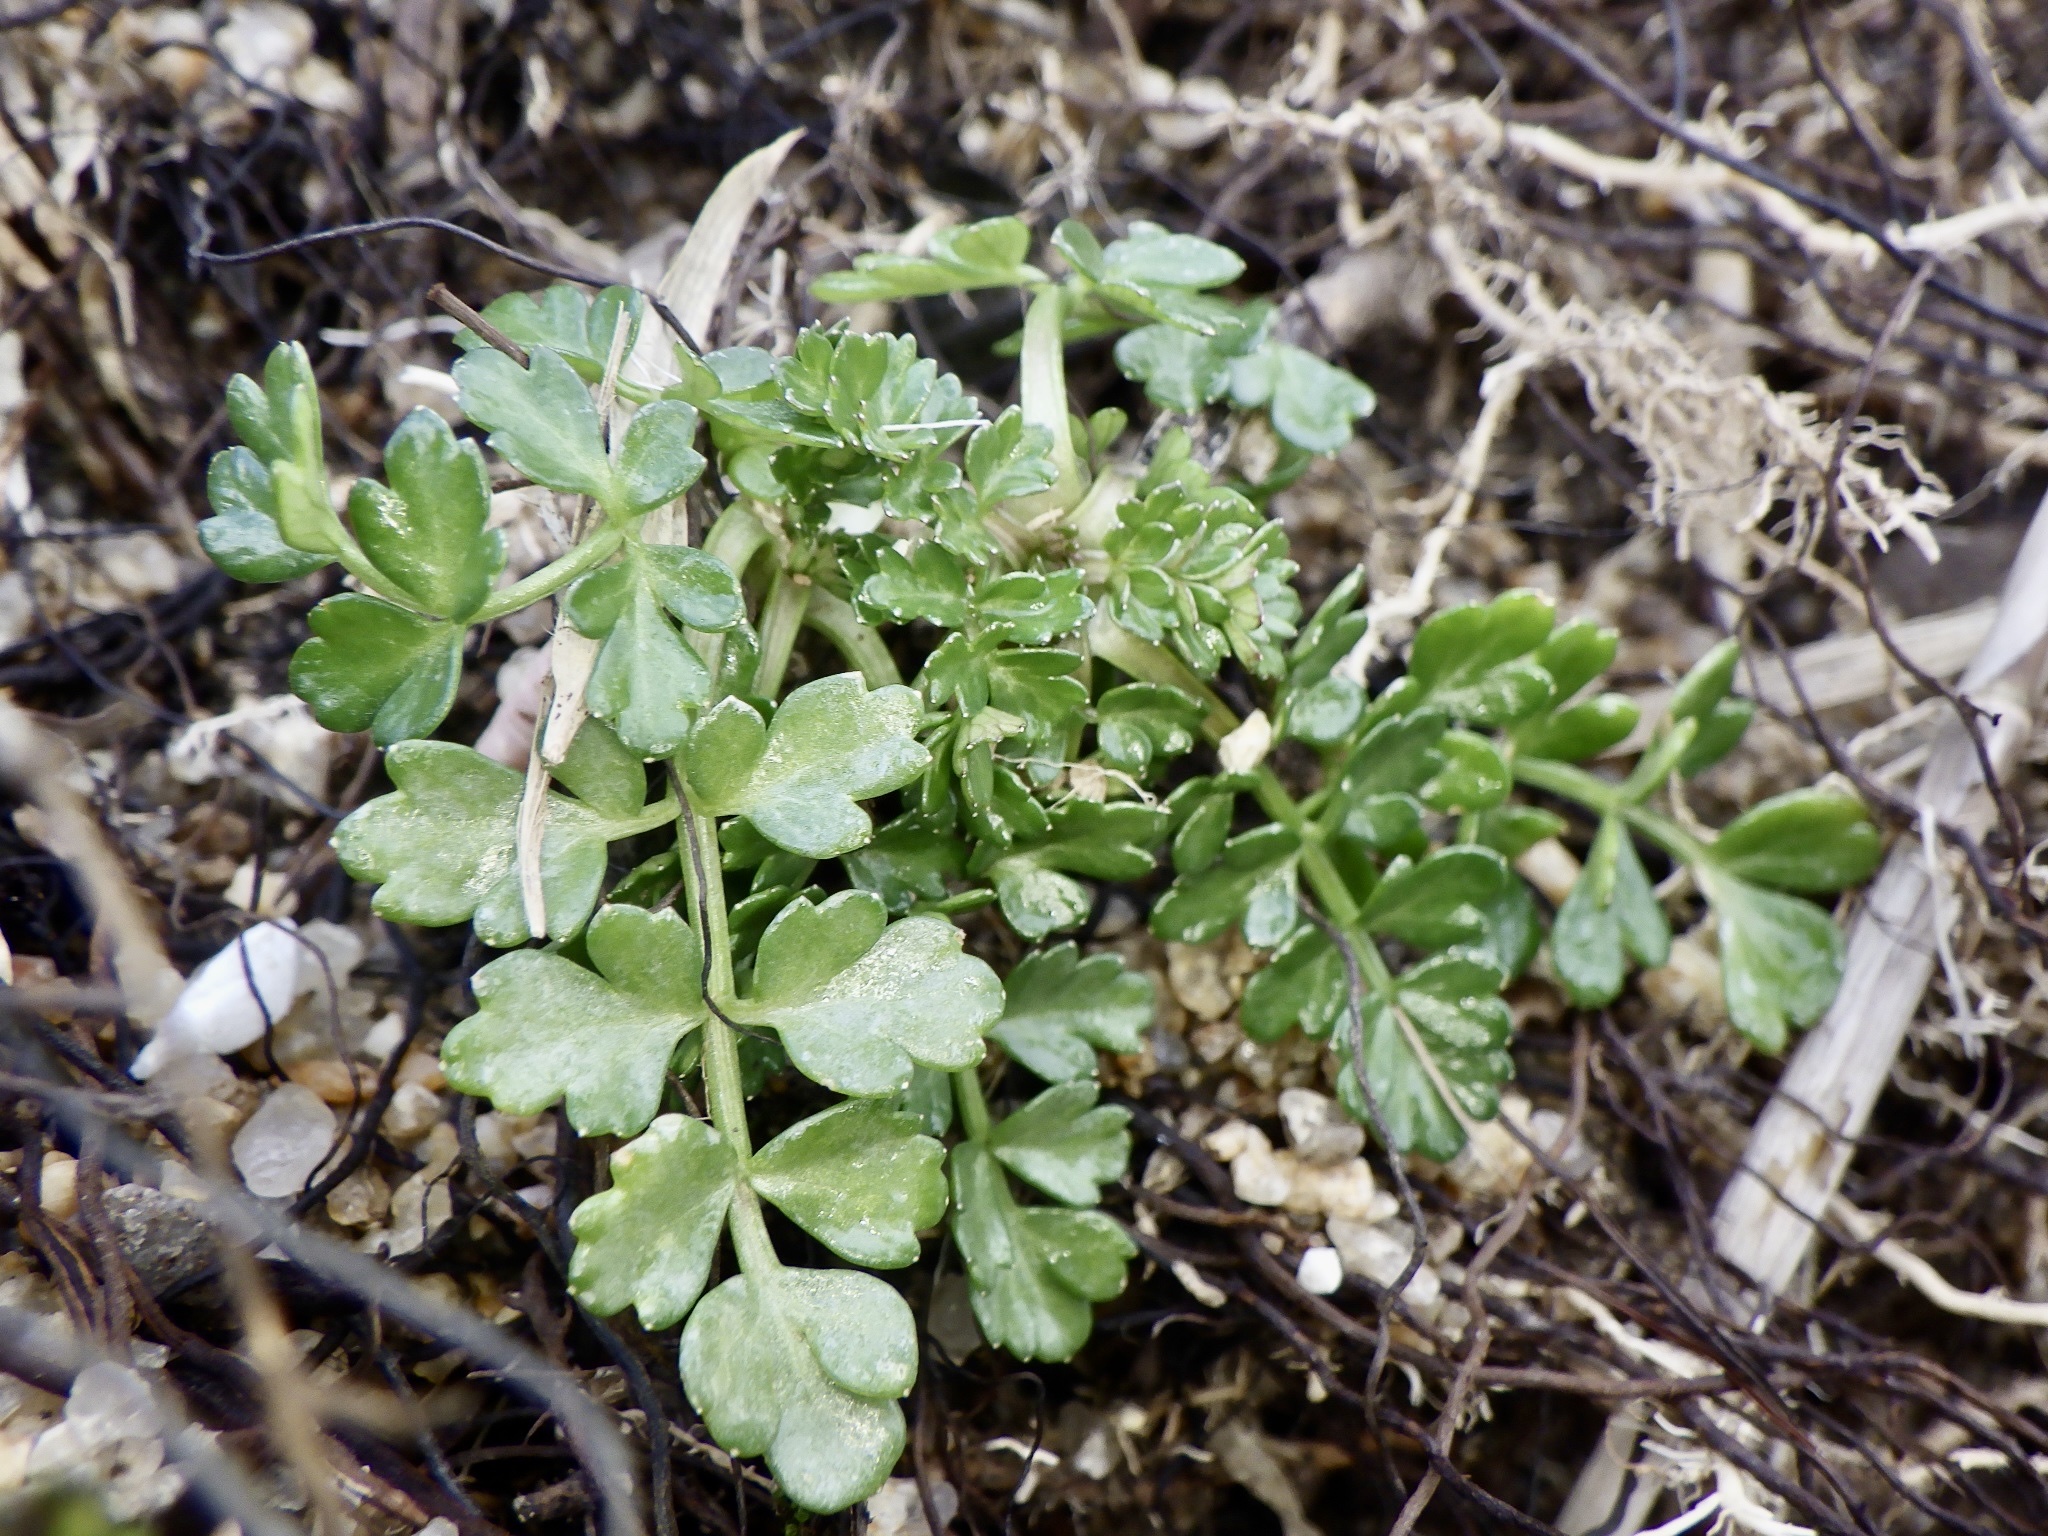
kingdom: Plantae
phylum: Tracheophyta
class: Magnoliopsida
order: Apiales
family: Apiaceae
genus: Cnidium
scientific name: Cnidium japonicum
